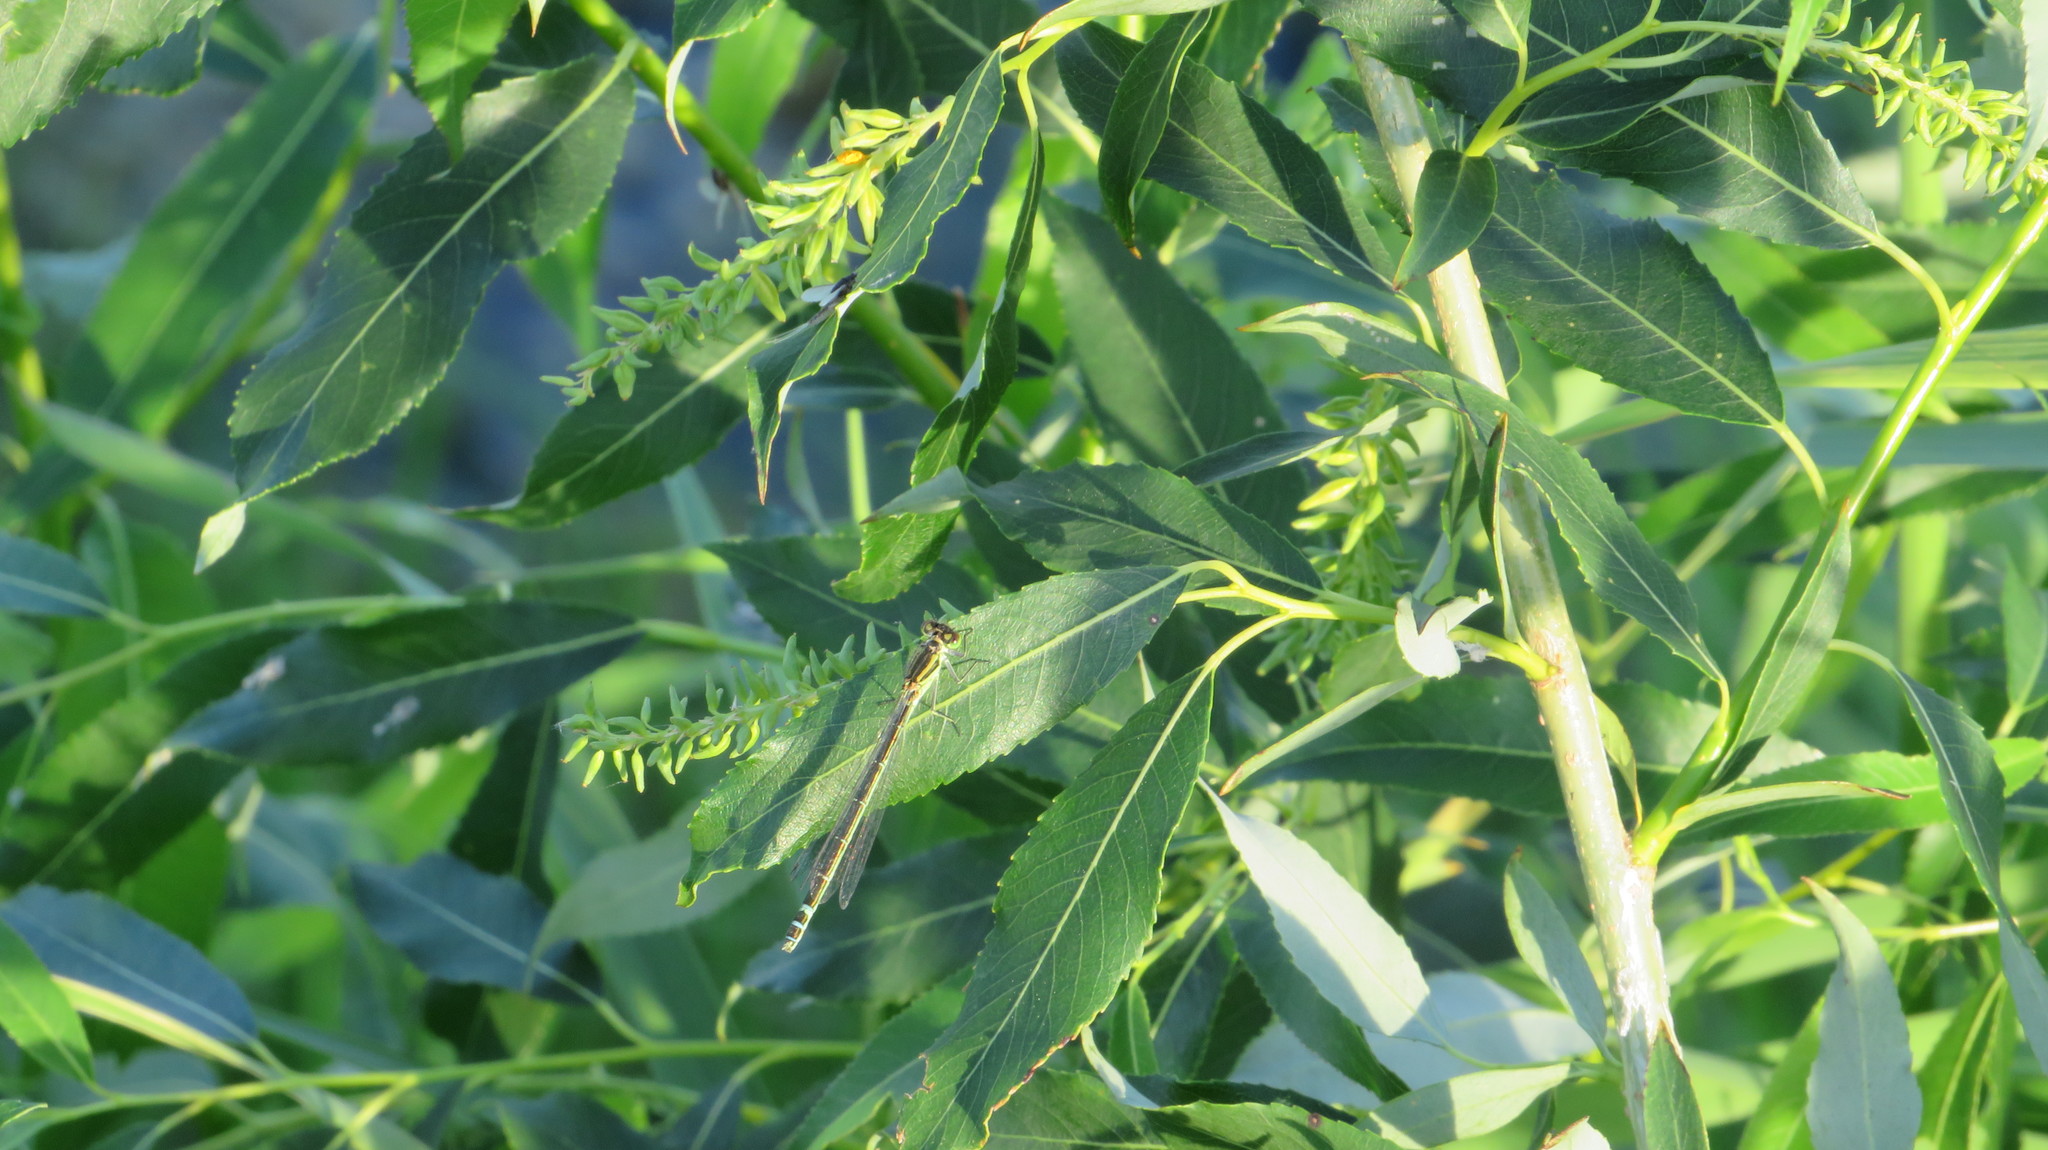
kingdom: Animalia
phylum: Arthropoda
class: Insecta
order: Odonata
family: Coenagrionidae
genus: Coenagrion
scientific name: Coenagrion lunulatum
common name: Irish damselfly
